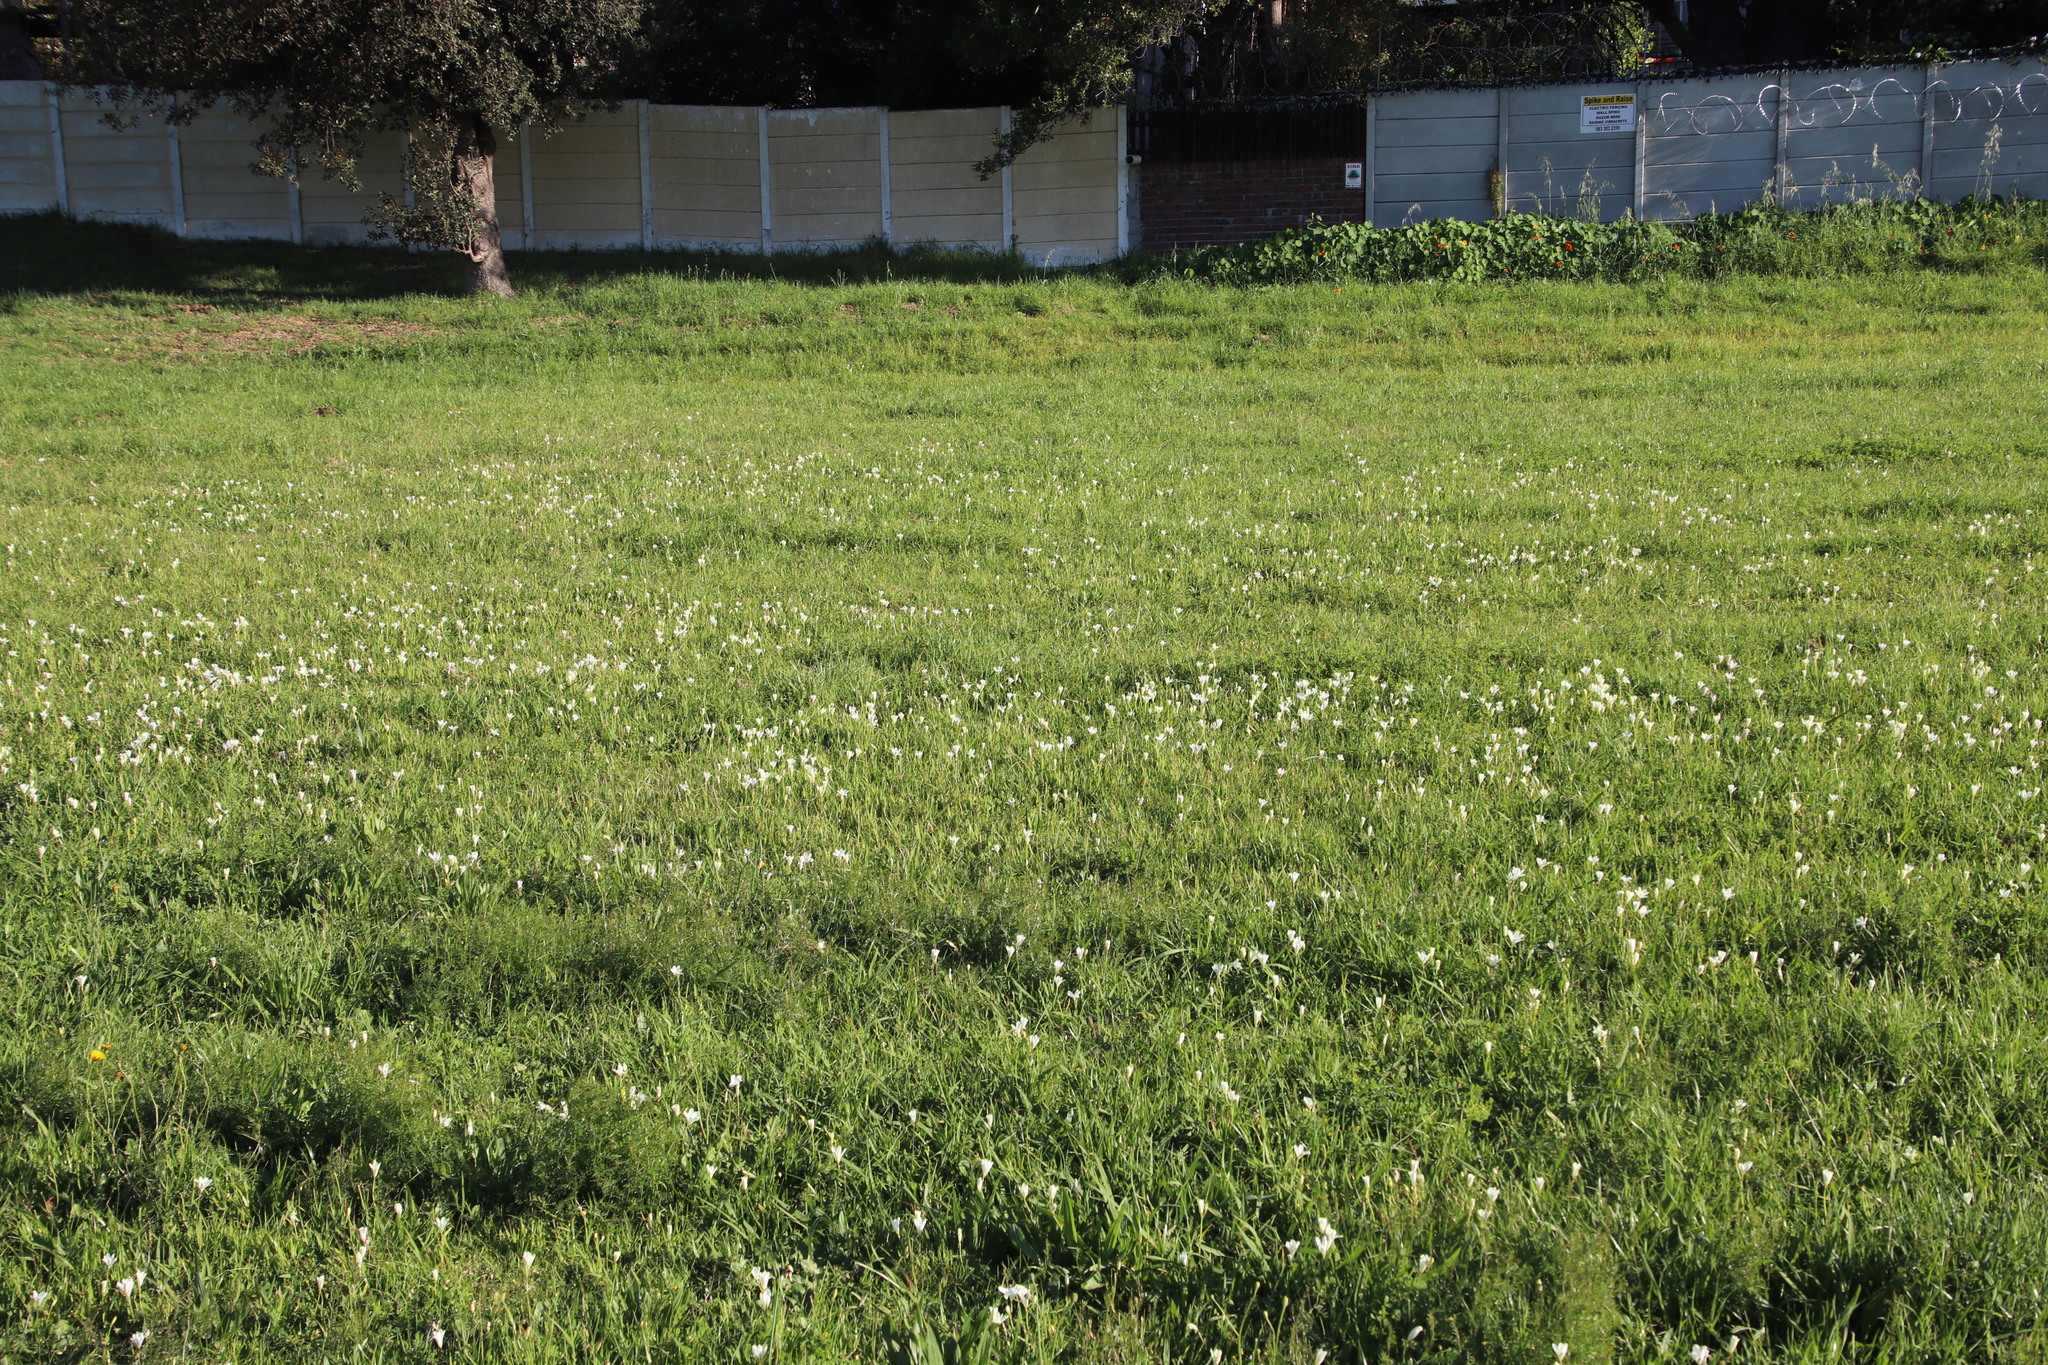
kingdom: Plantae
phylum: Tracheophyta
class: Liliopsida
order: Asparagales
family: Iridaceae
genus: Sparaxis
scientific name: Sparaxis bulbifera
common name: Harlequin-flower
